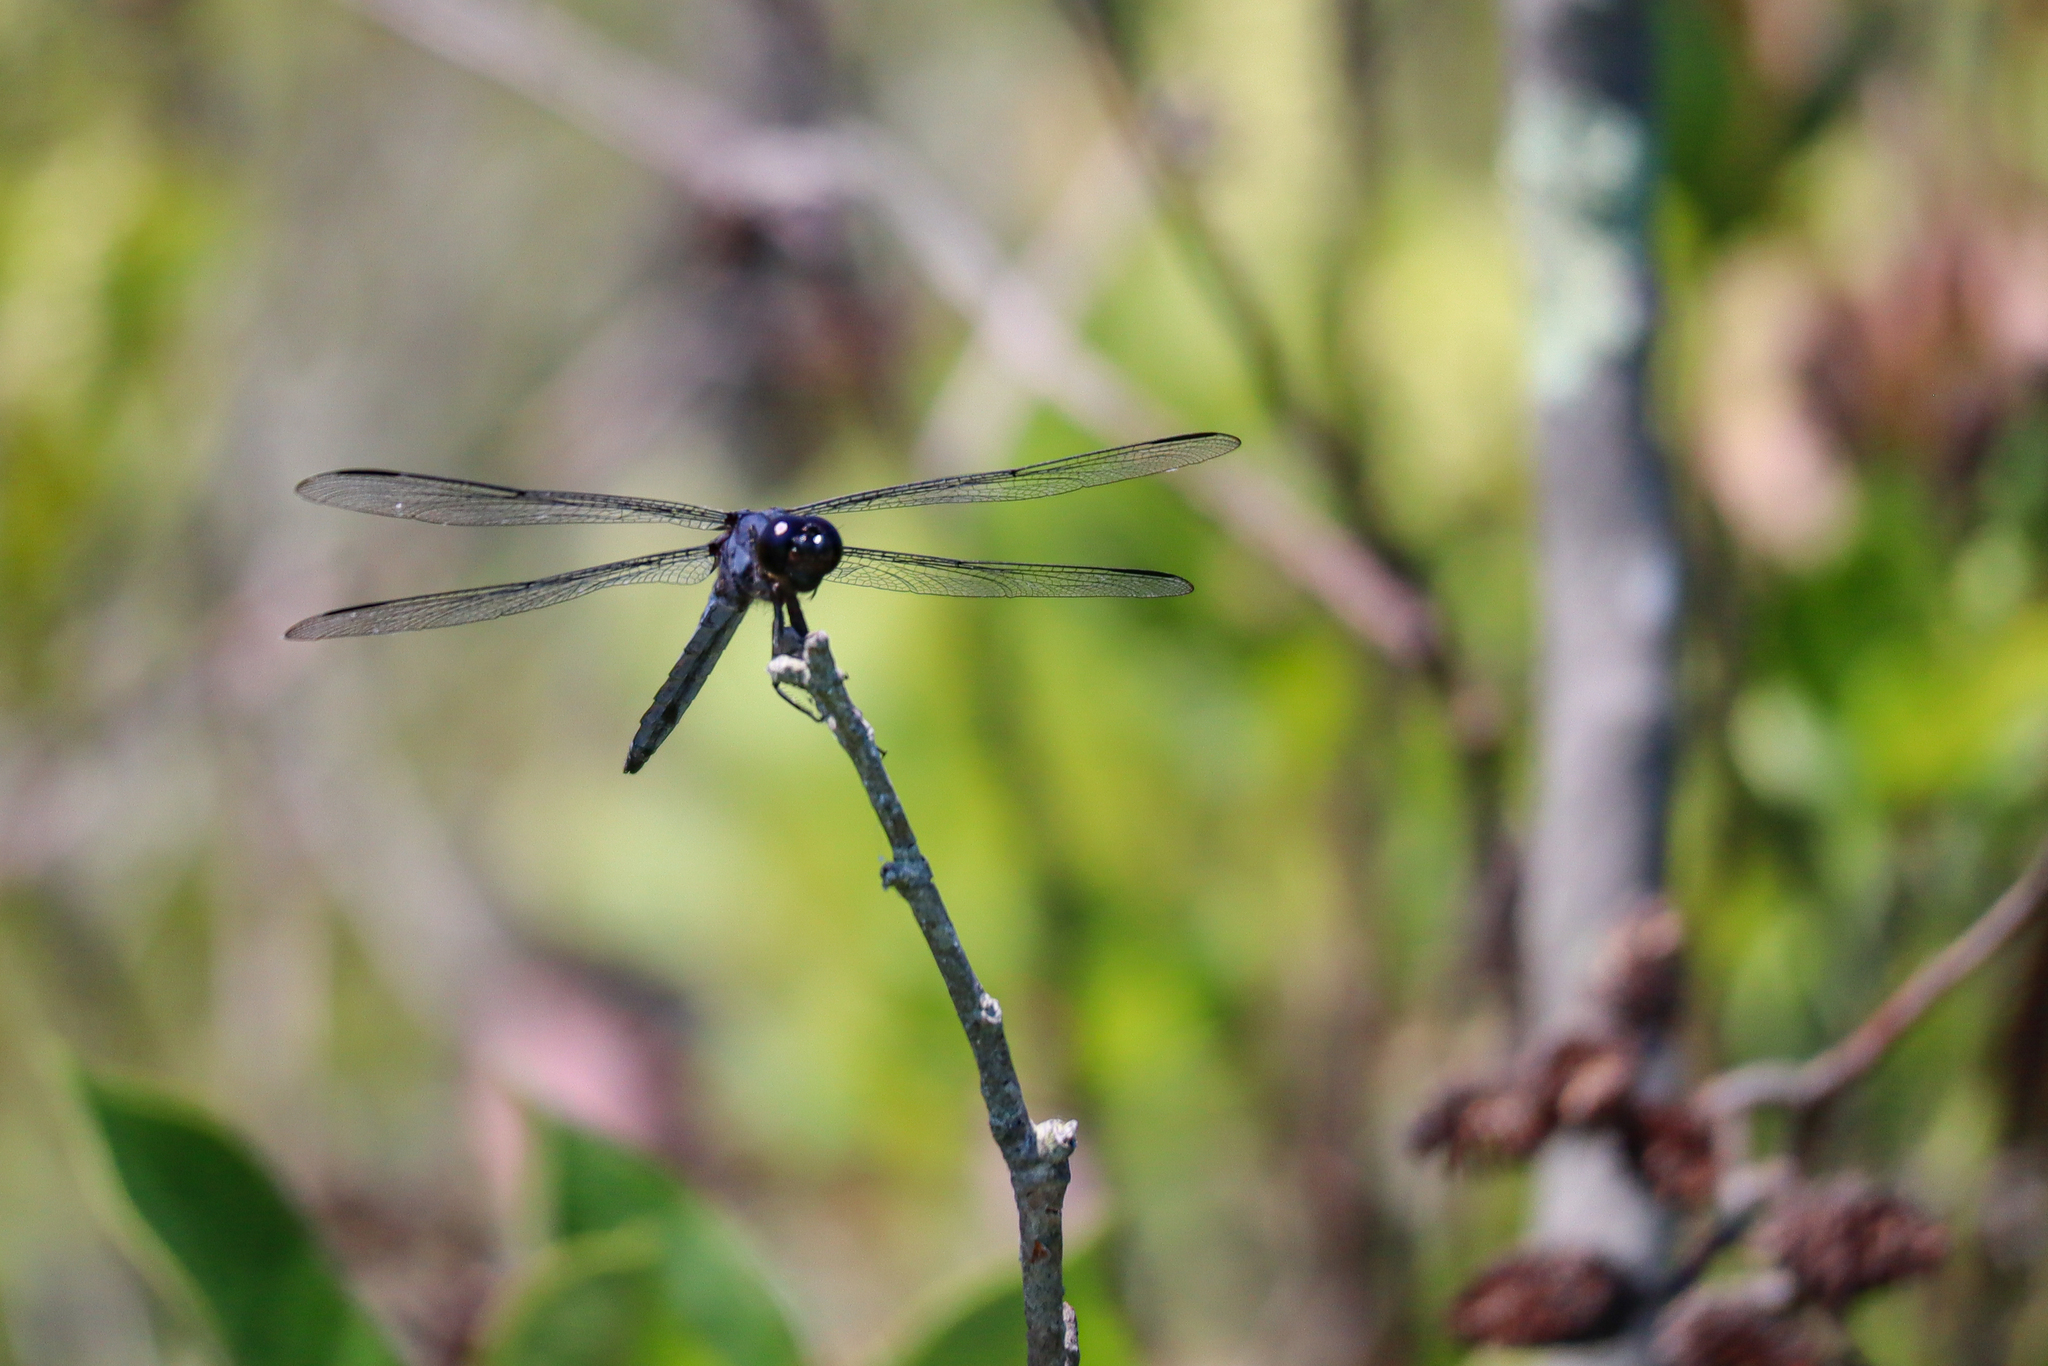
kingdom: Animalia
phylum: Arthropoda
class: Insecta
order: Odonata
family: Libellulidae
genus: Libellula
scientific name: Libellula incesta
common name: Slaty skimmer
